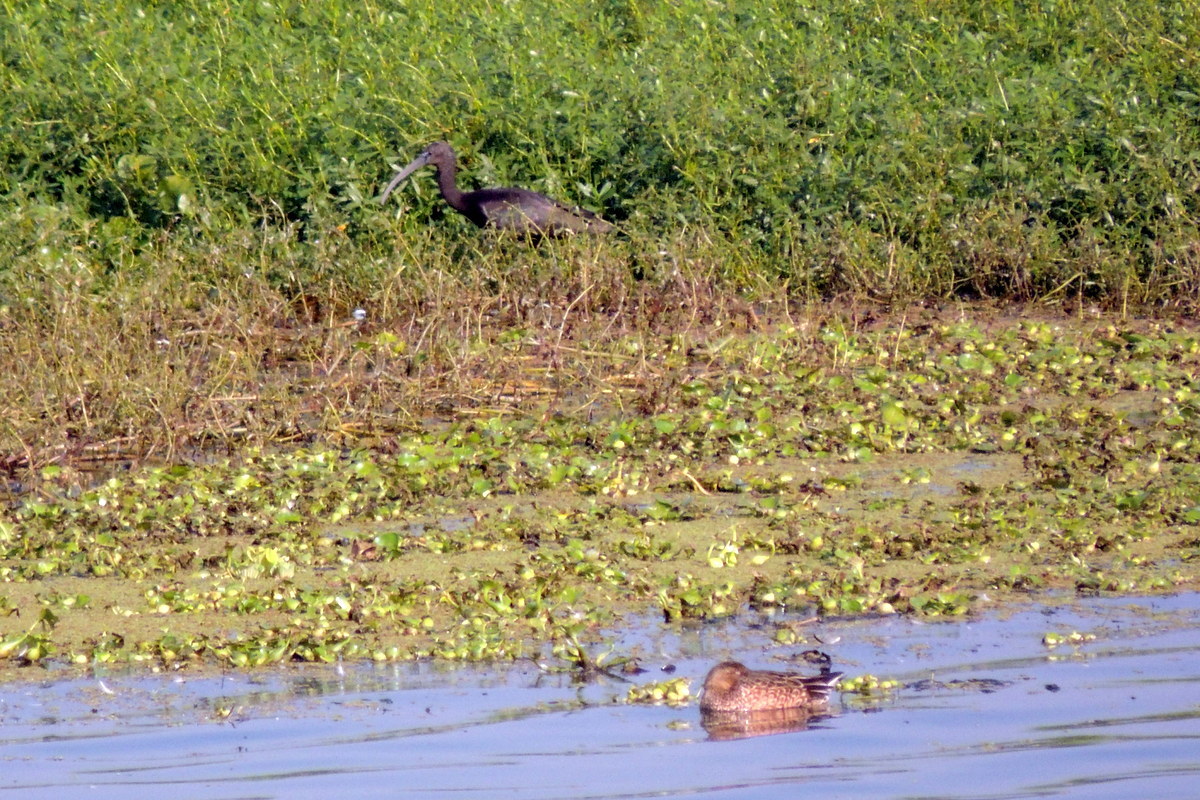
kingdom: Animalia
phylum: Chordata
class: Aves
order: Pelecaniformes
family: Threskiornithidae
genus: Plegadis
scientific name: Plegadis falcinellus
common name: Glossy ibis
